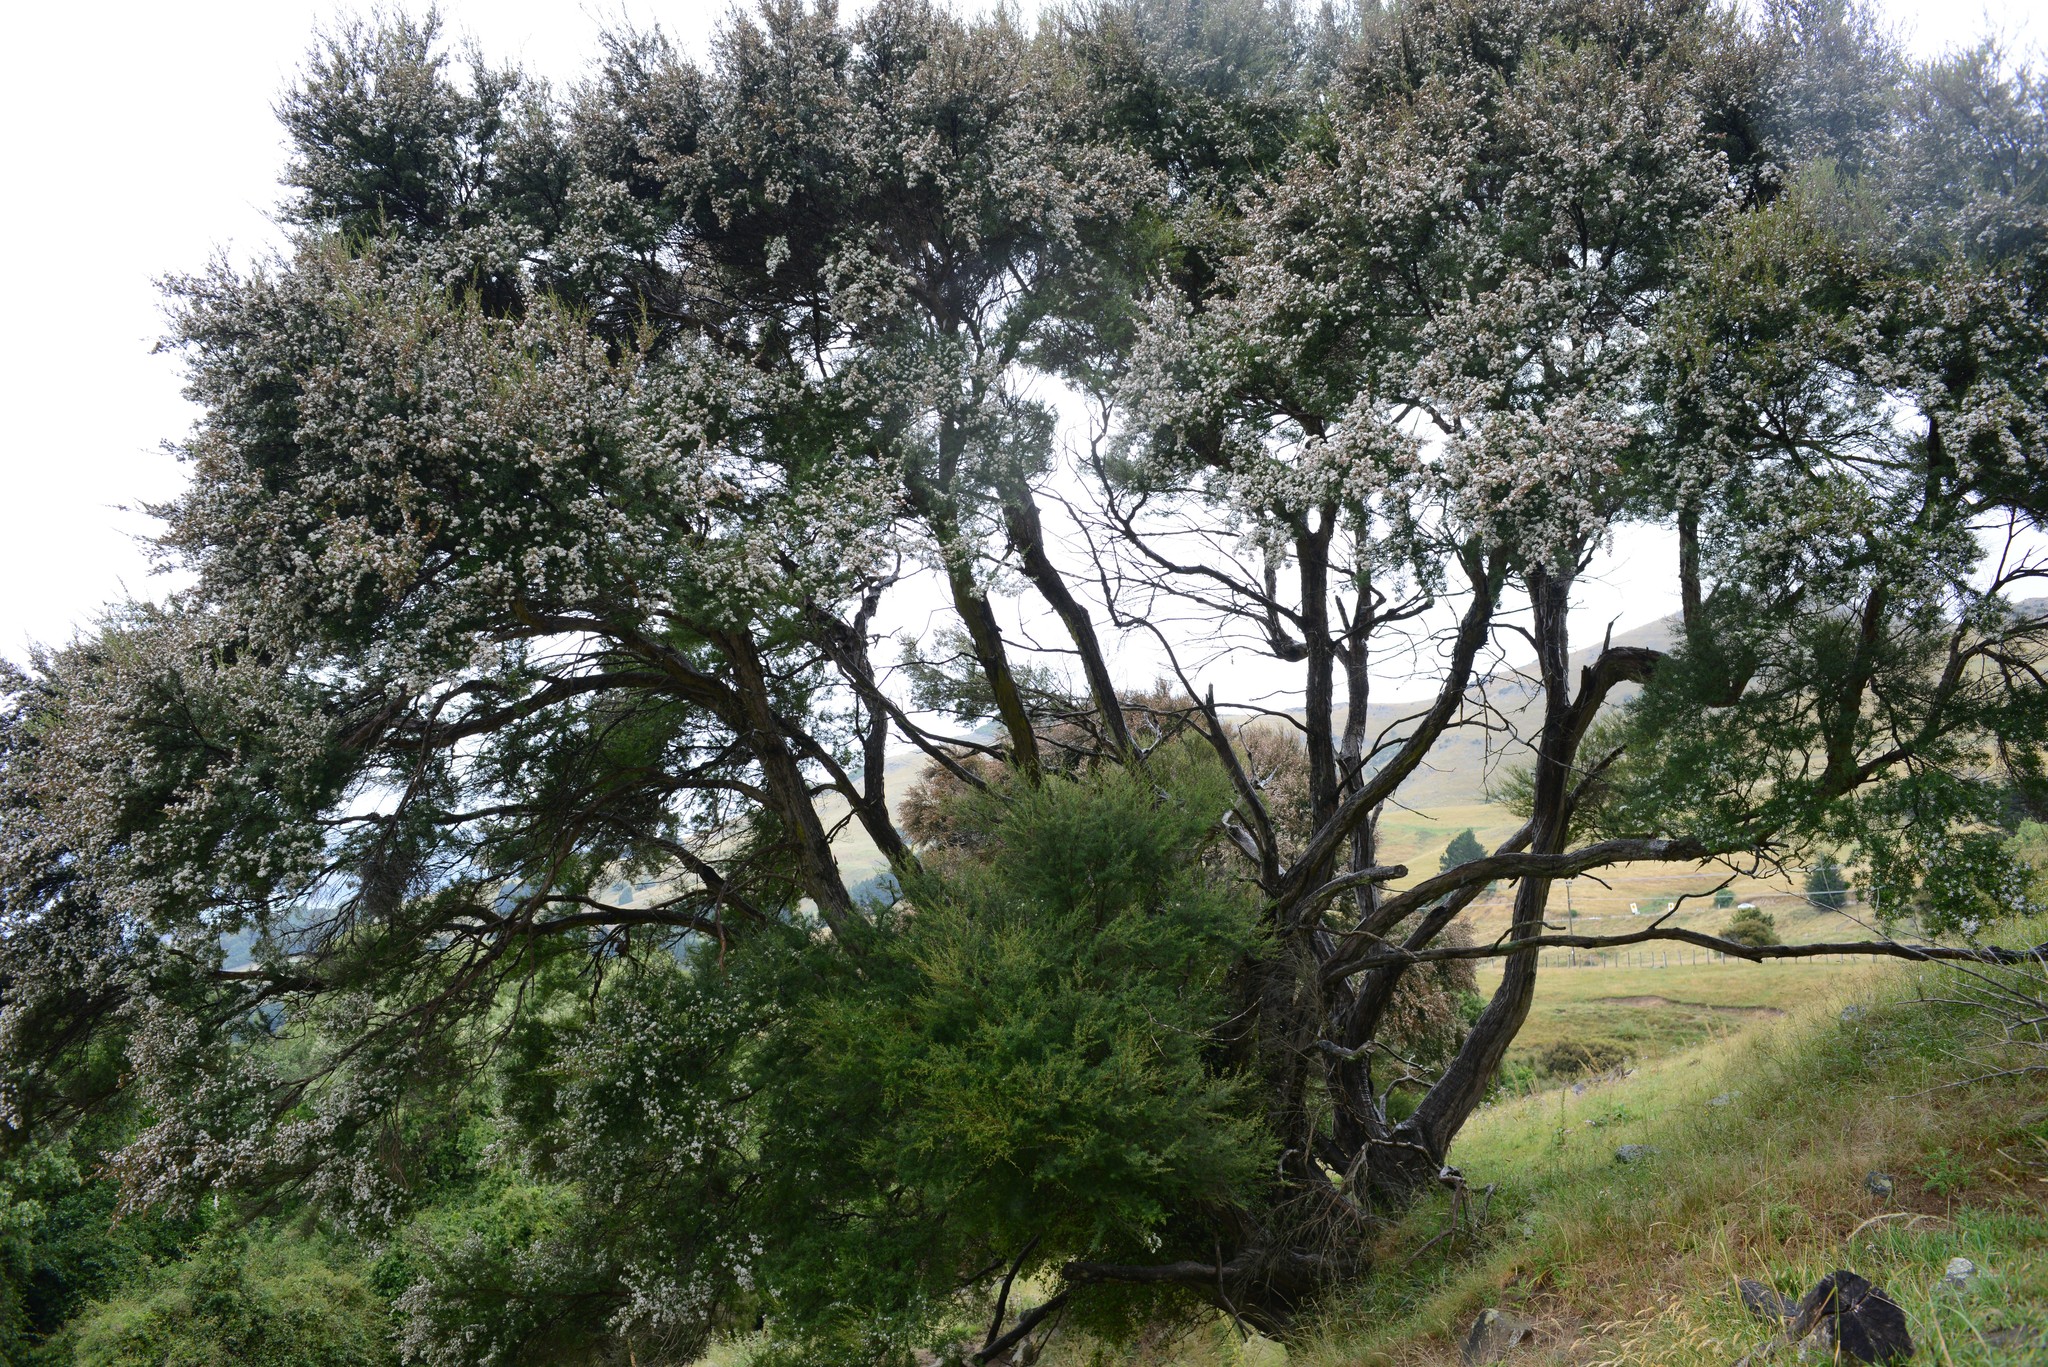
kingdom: Plantae
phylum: Tracheophyta
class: Magnoliopsida
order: Myrtales
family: Myrtaceae
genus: Kunzea
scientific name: Kunzea robusta
